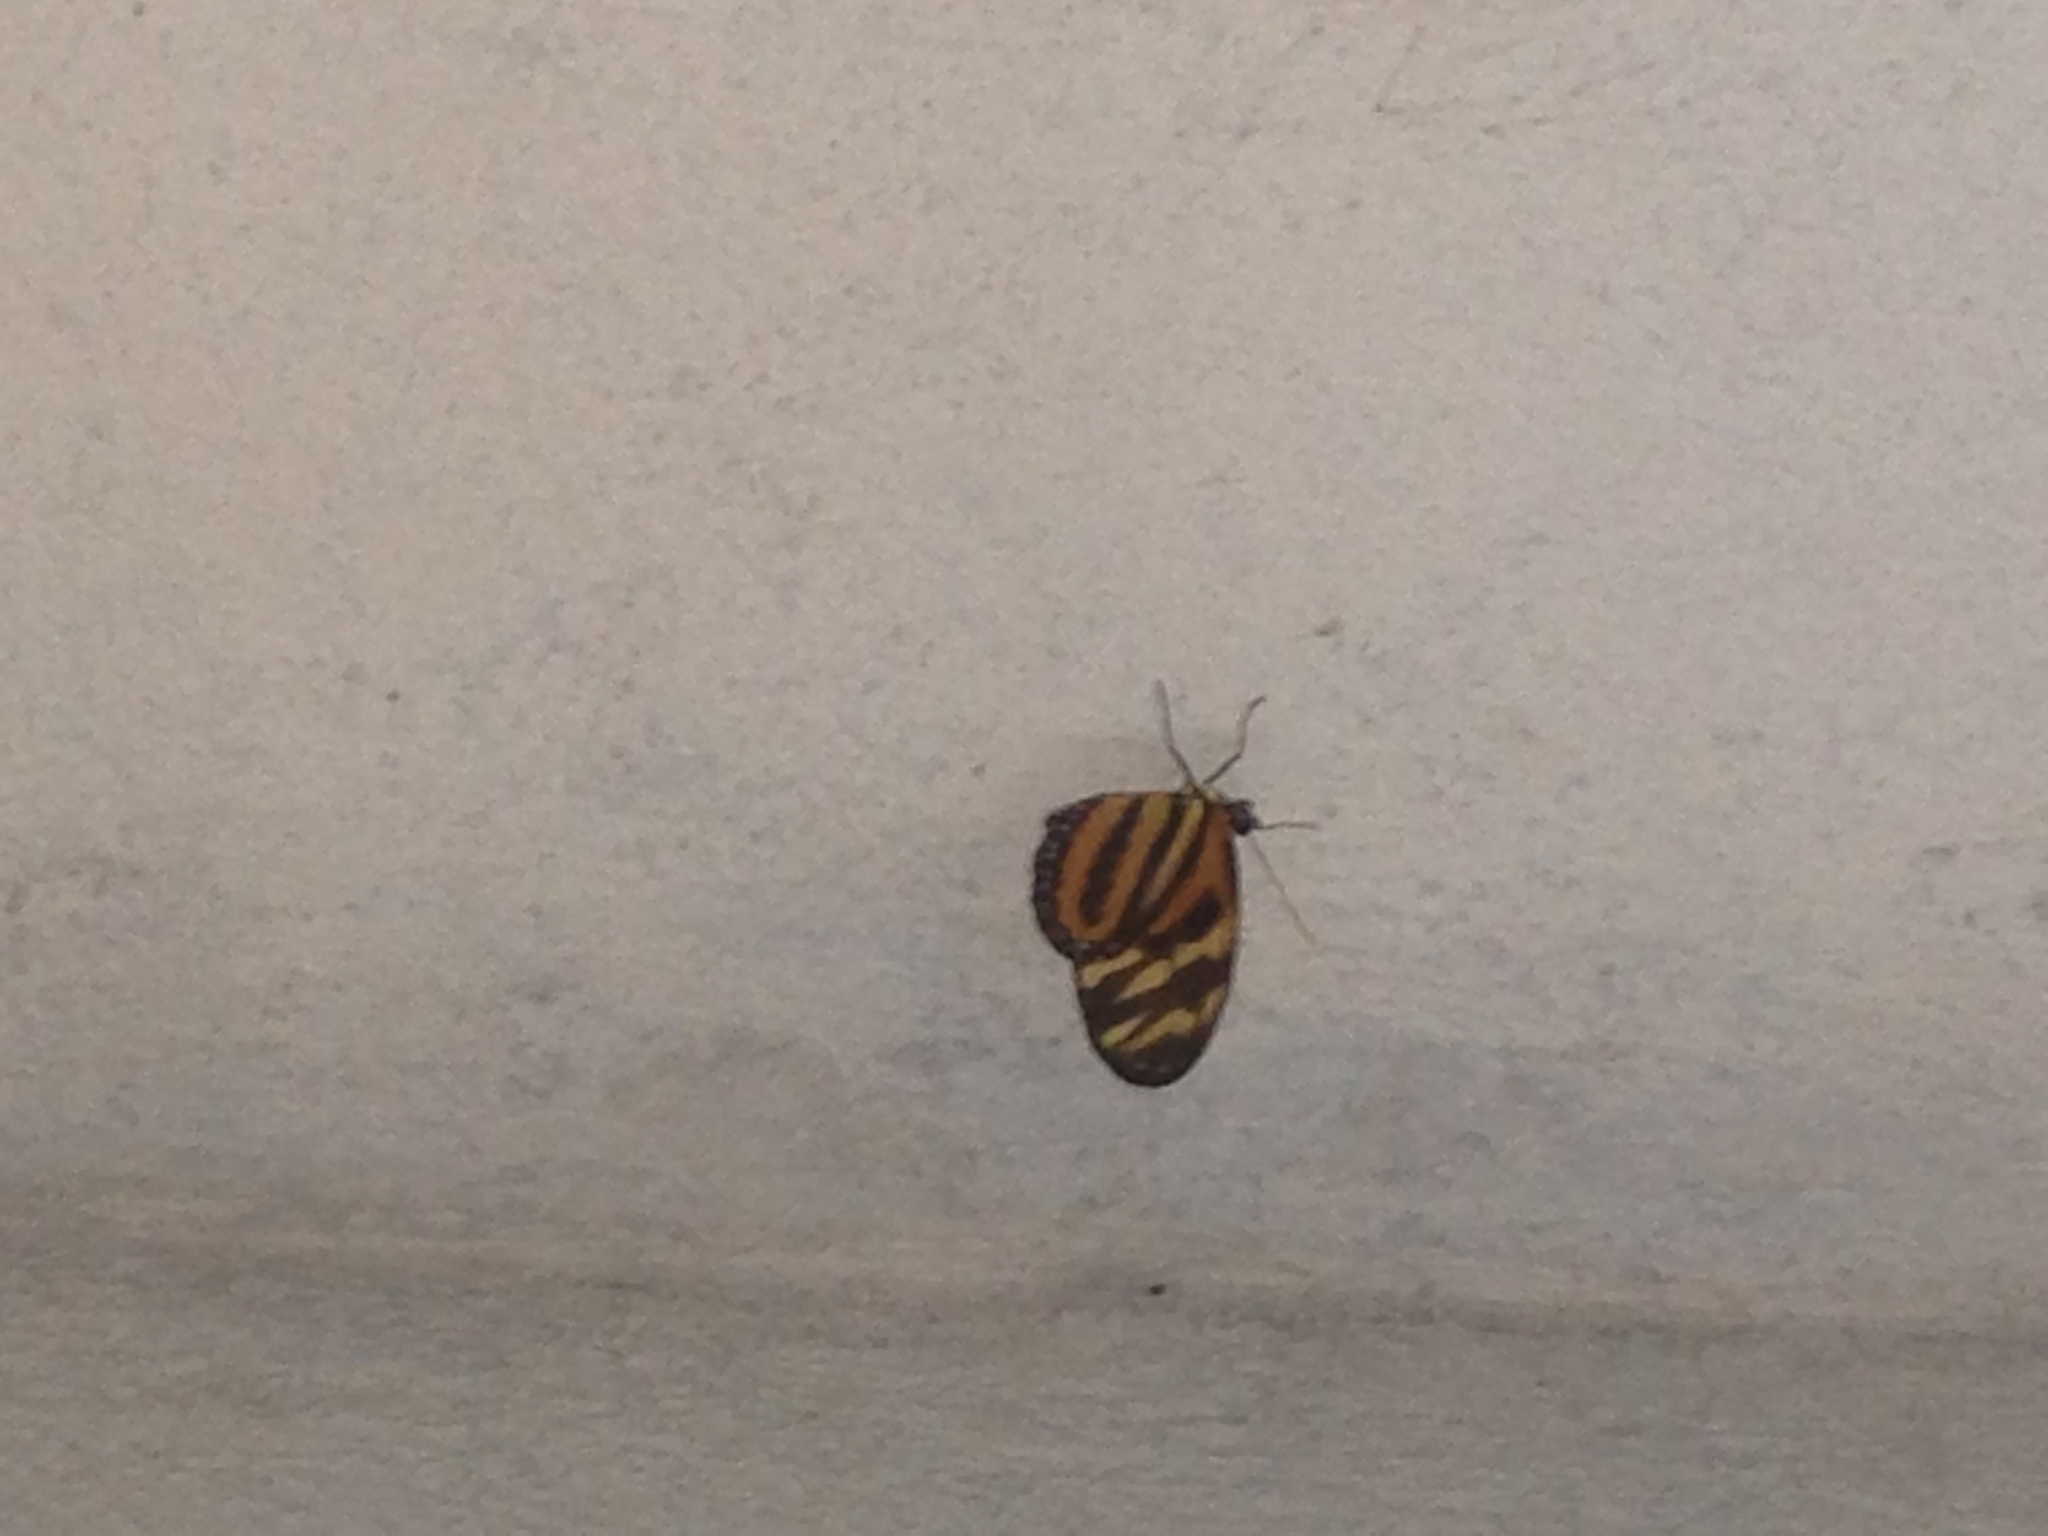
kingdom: Animalia
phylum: Arthropoda
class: Insecta
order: Lepidoptera
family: Nymphalidae
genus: Lycorea
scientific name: Lycorea eva
